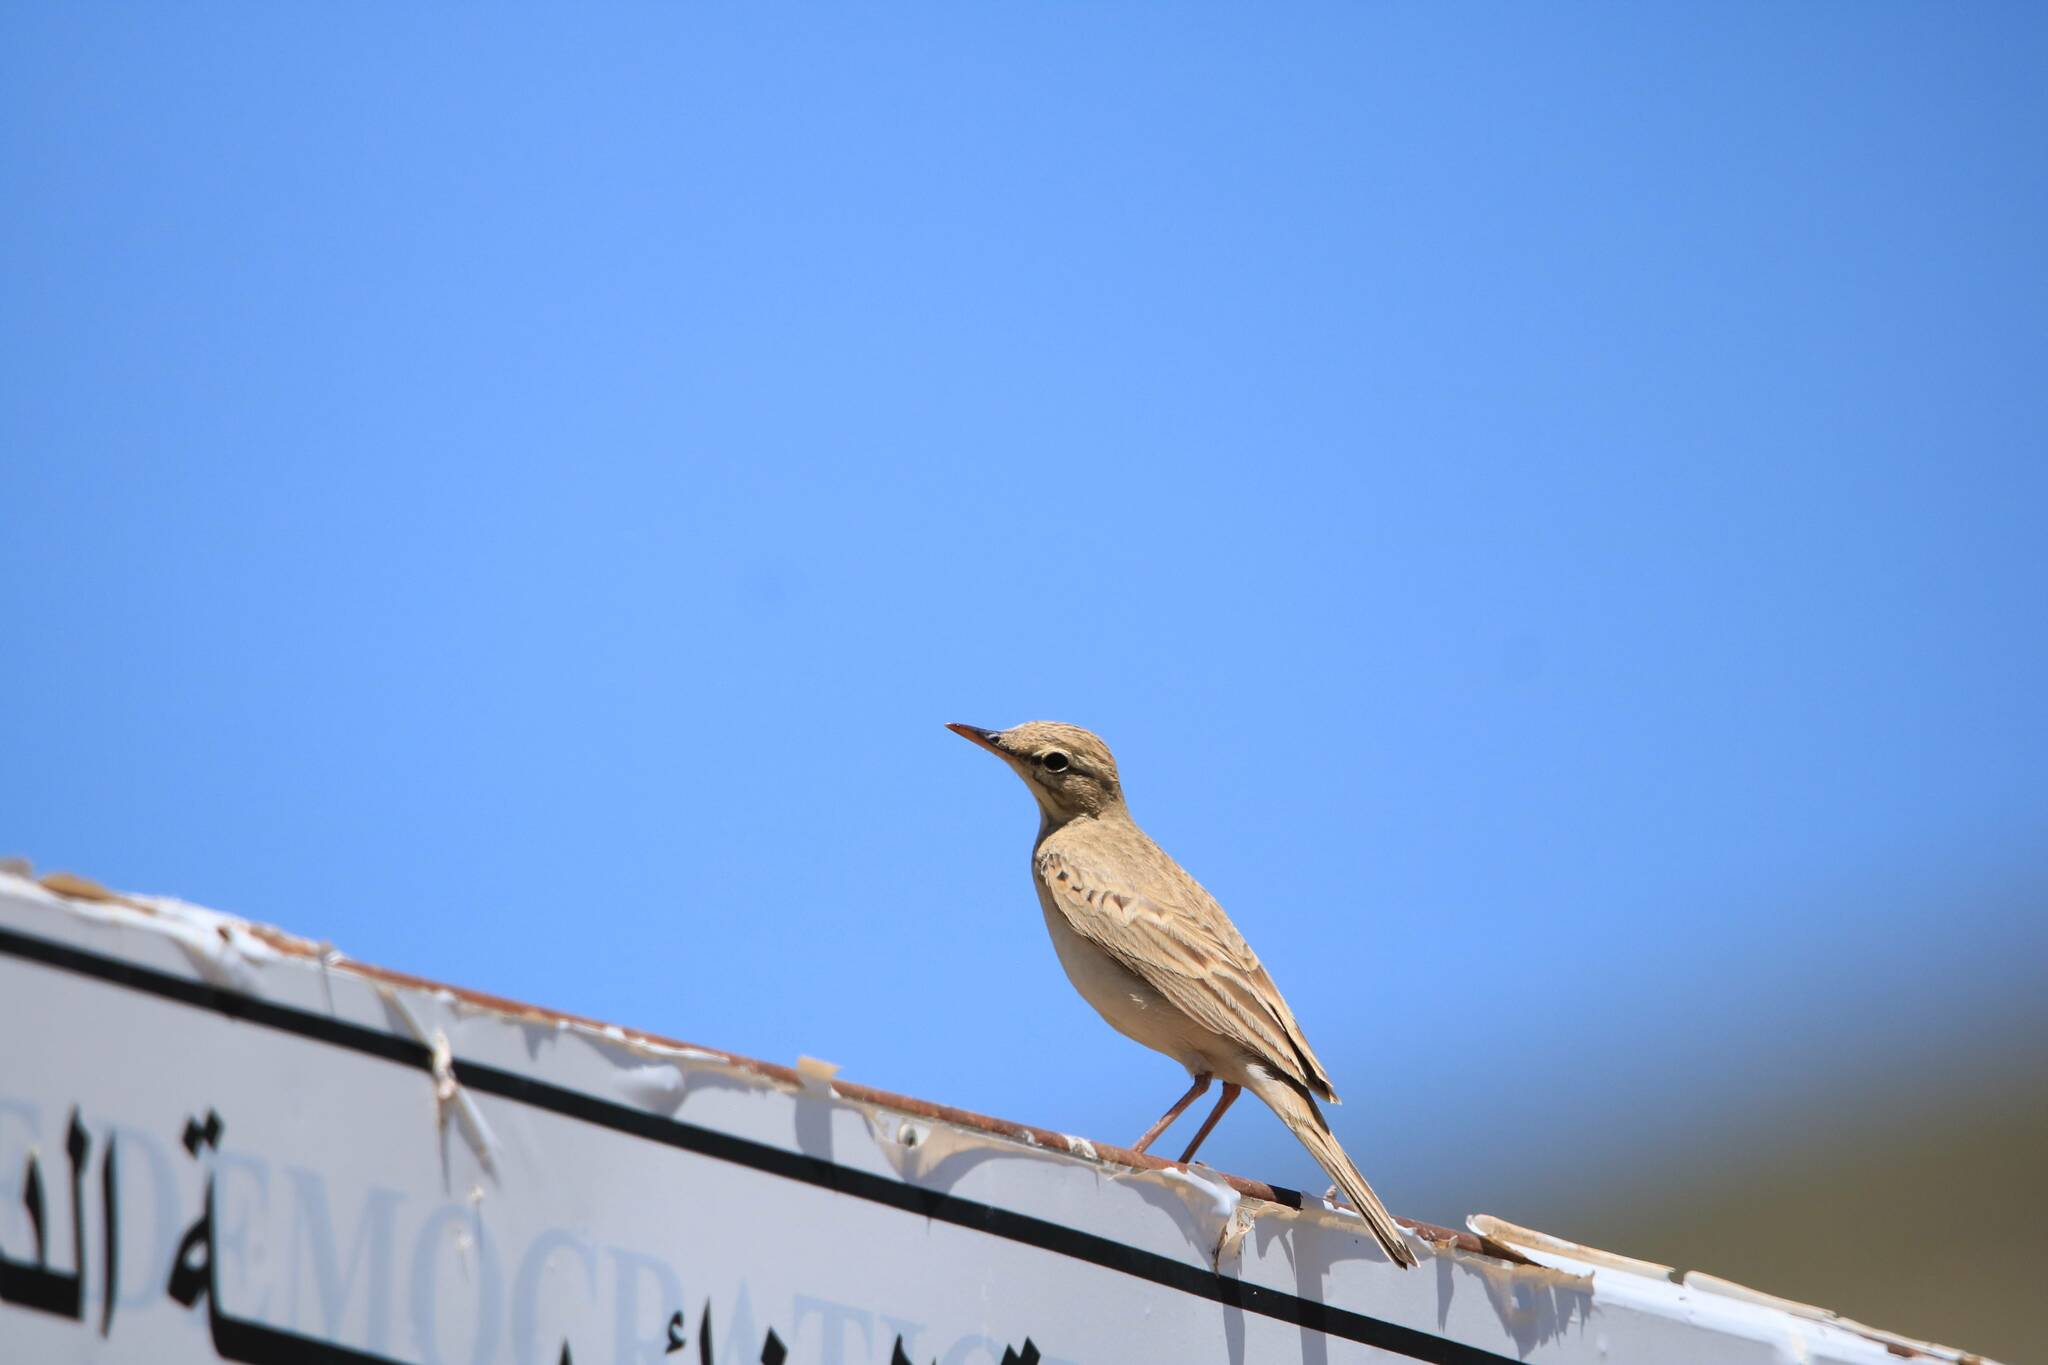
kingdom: Animalia
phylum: Chordata
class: Aves
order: Passeriformes
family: Motacillidae
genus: Anthus
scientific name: Anthus campestris
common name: Tawny pipit
